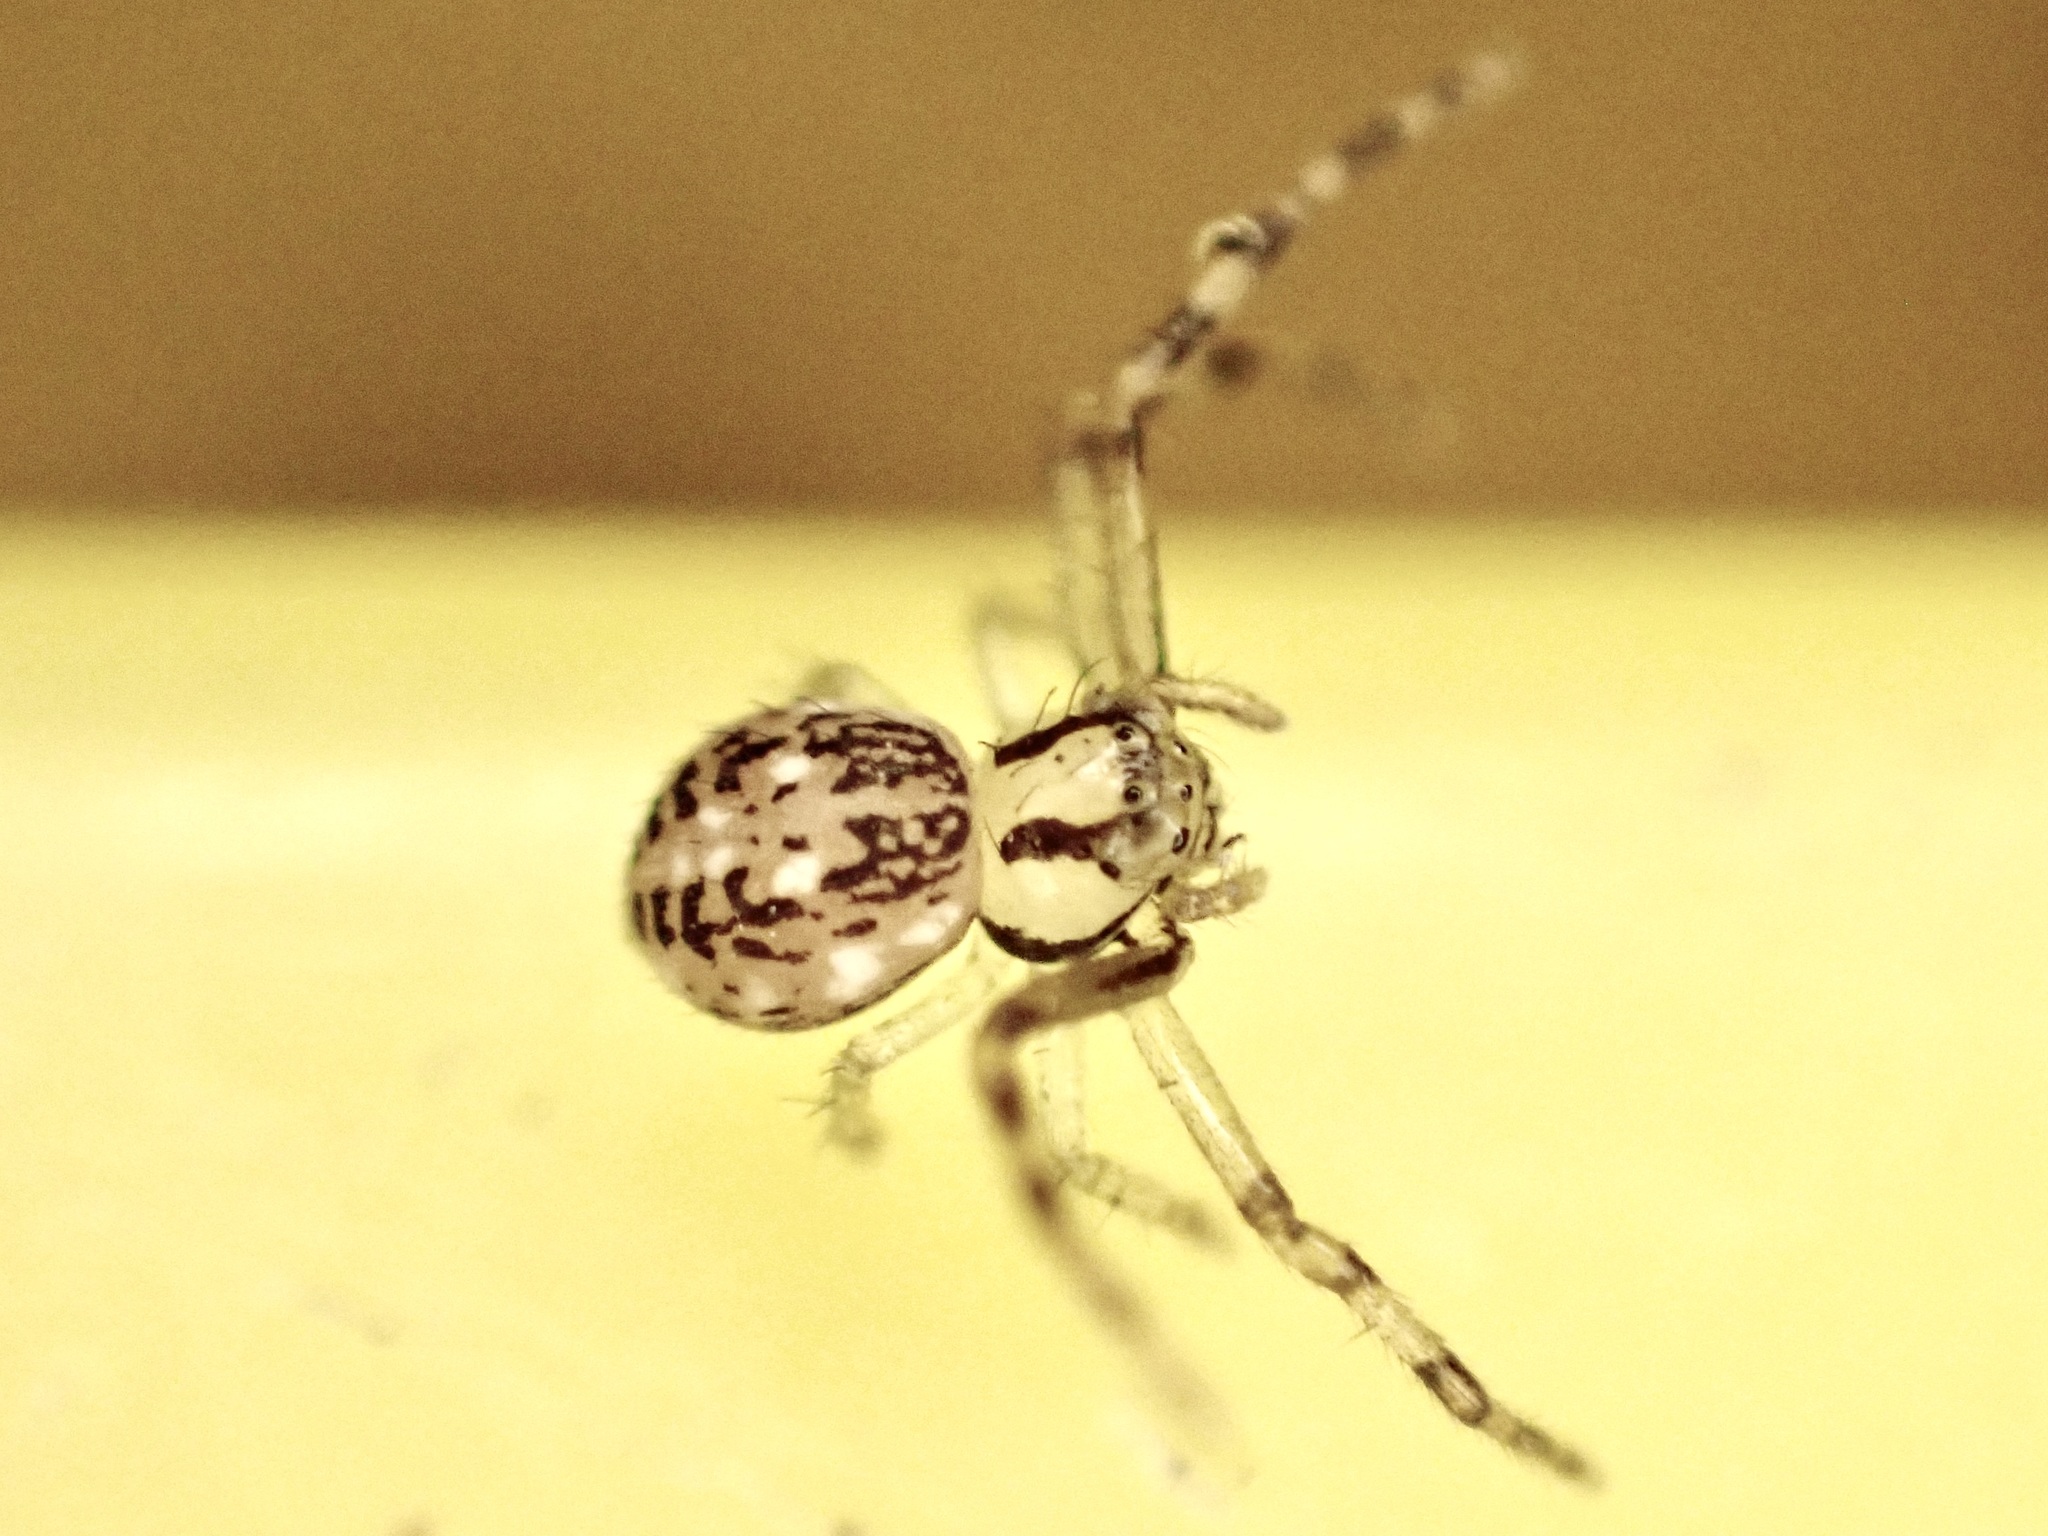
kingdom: Animalia
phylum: Arthropoda
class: Arachnida
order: Araneae
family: Thomisidae
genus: Diaea
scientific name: Diaea ambara
